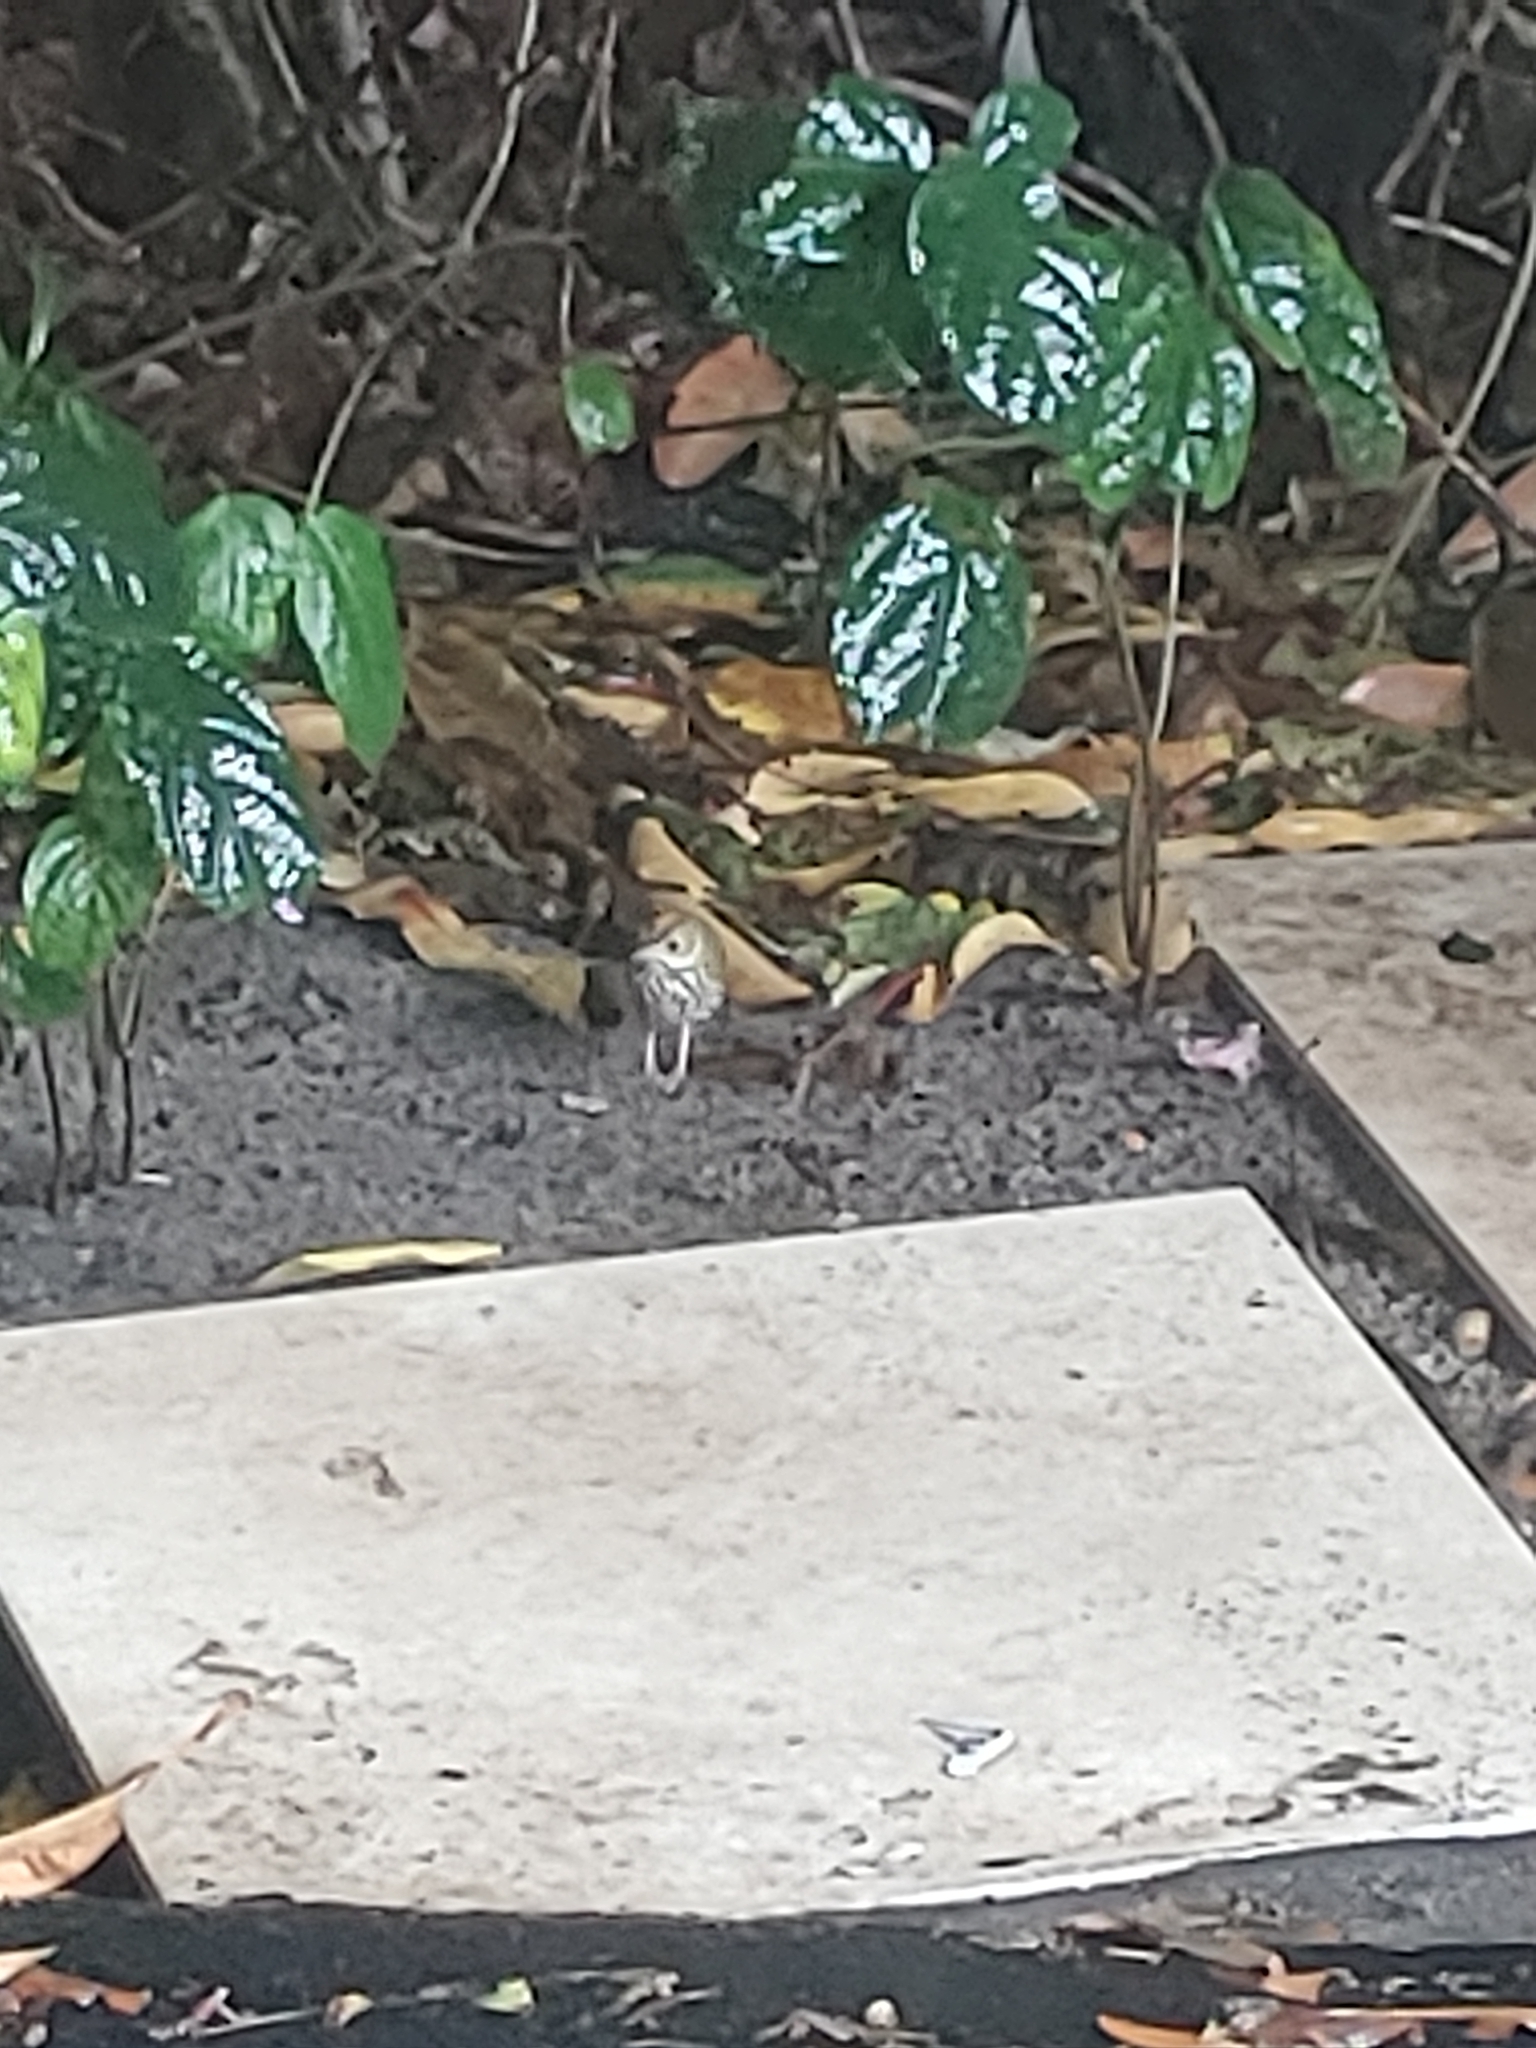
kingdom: Animalia
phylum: Chordata
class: Aves
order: Passeriformes
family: Parulidae
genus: Seiurus
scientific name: Seiurus aurocapilla
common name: Ovenbird
